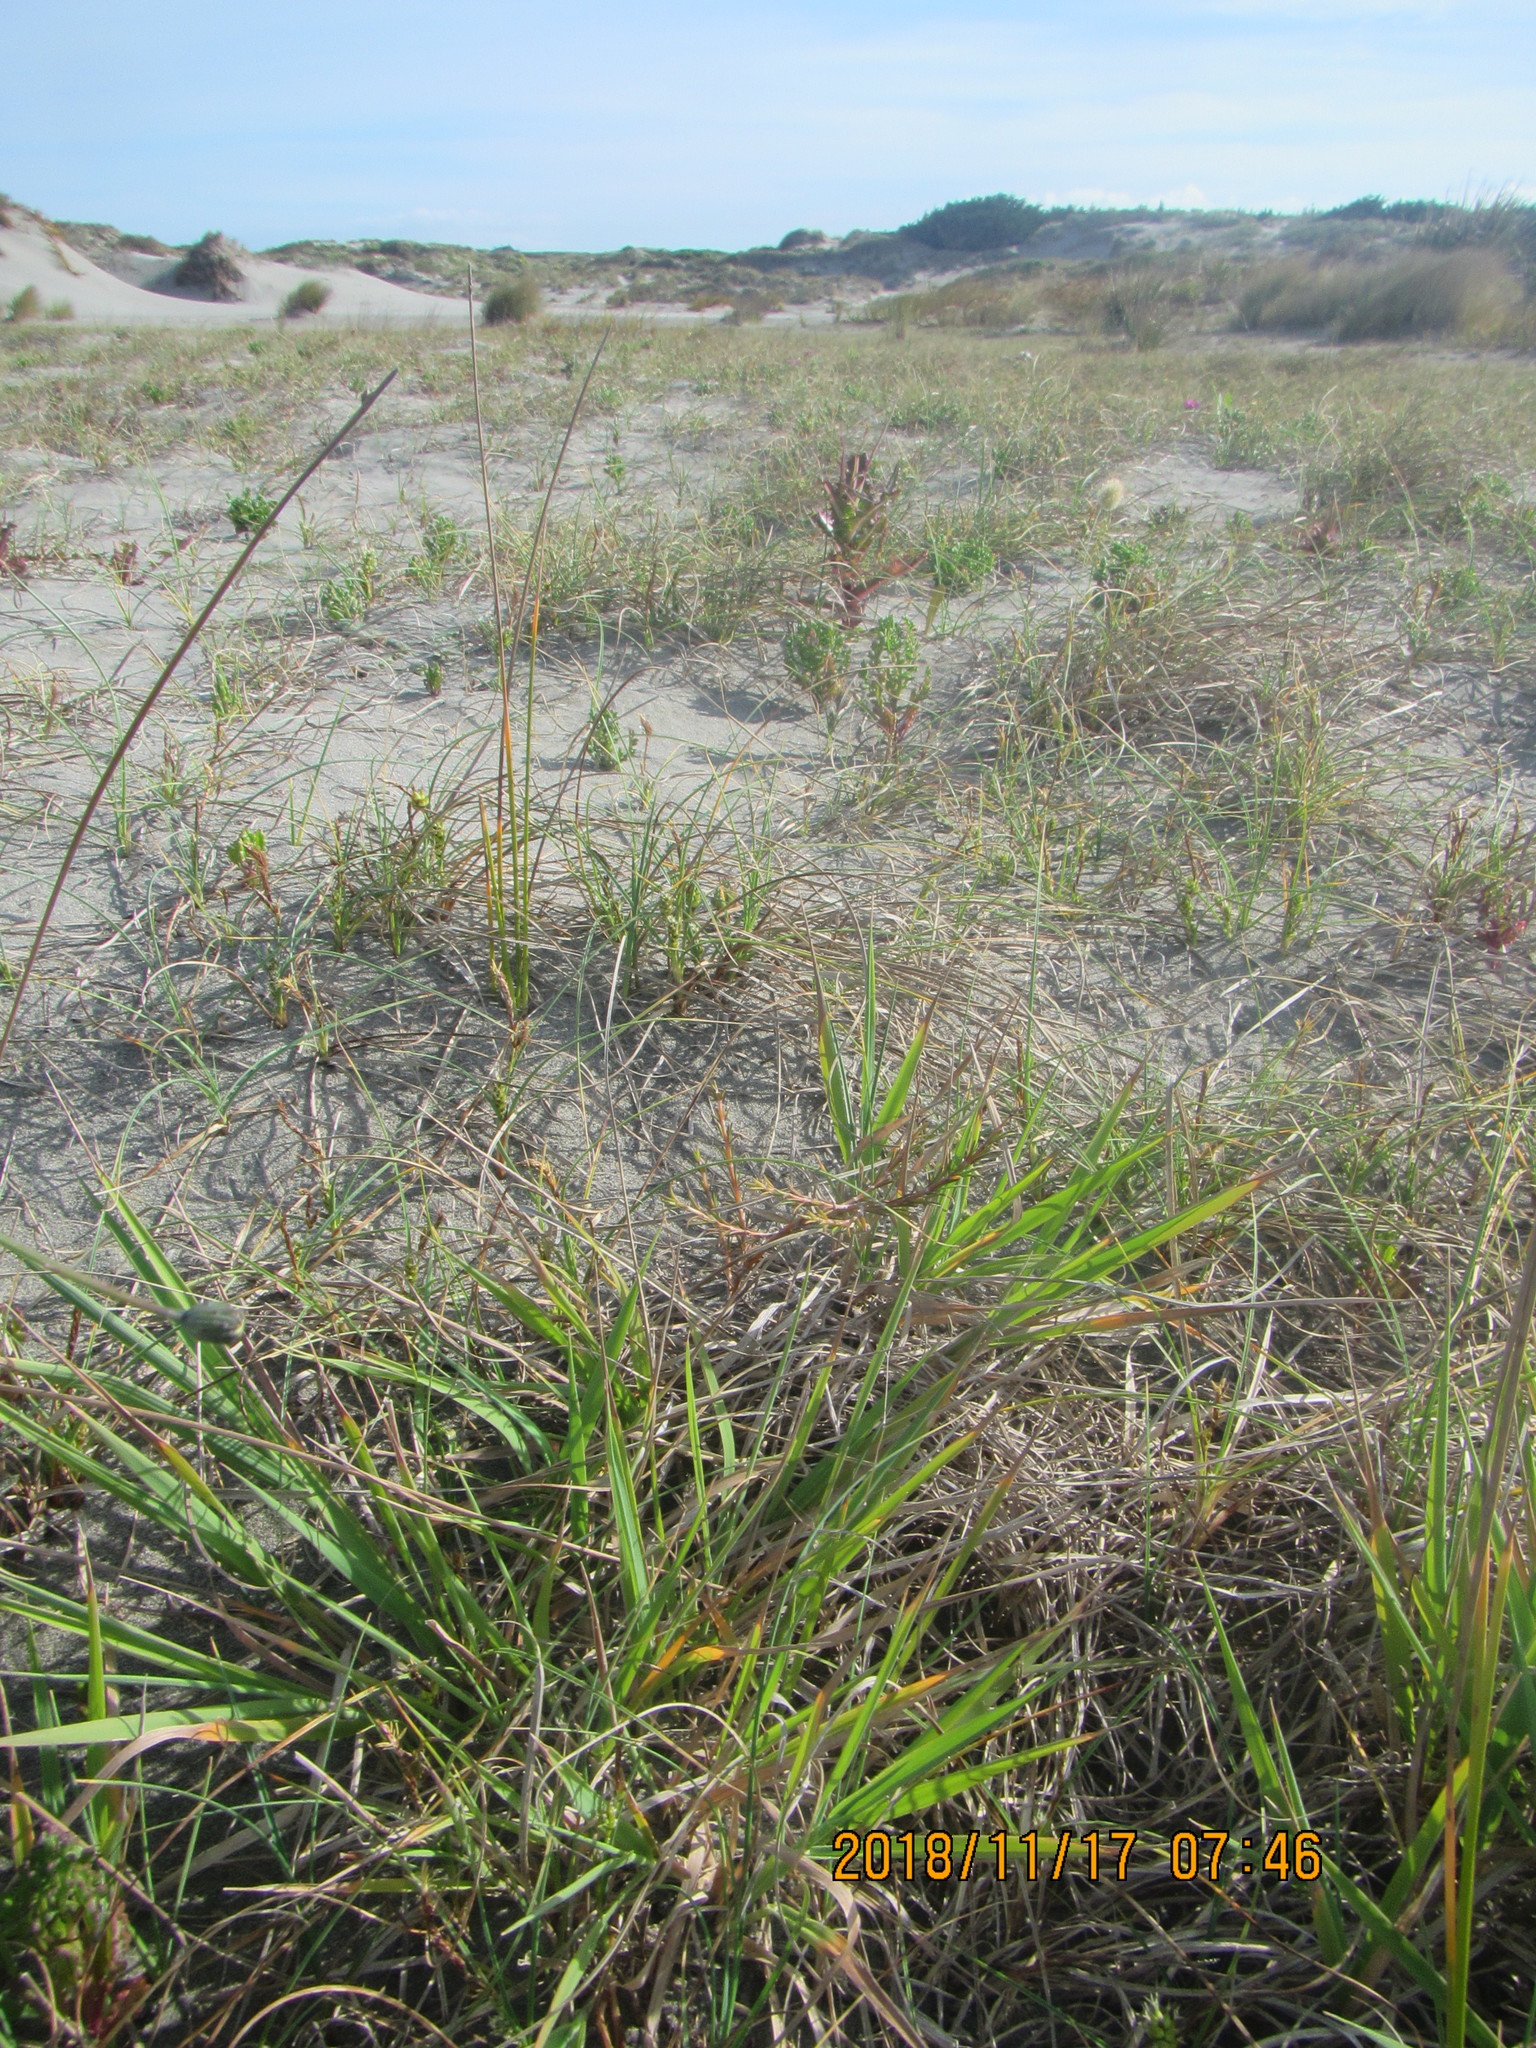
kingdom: Plantae
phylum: Tracheophyta
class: Magnoliopsida
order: Gentianales
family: Rubiaceae
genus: Coprosma
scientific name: Coprosma acerosa
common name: Sand coprosma
